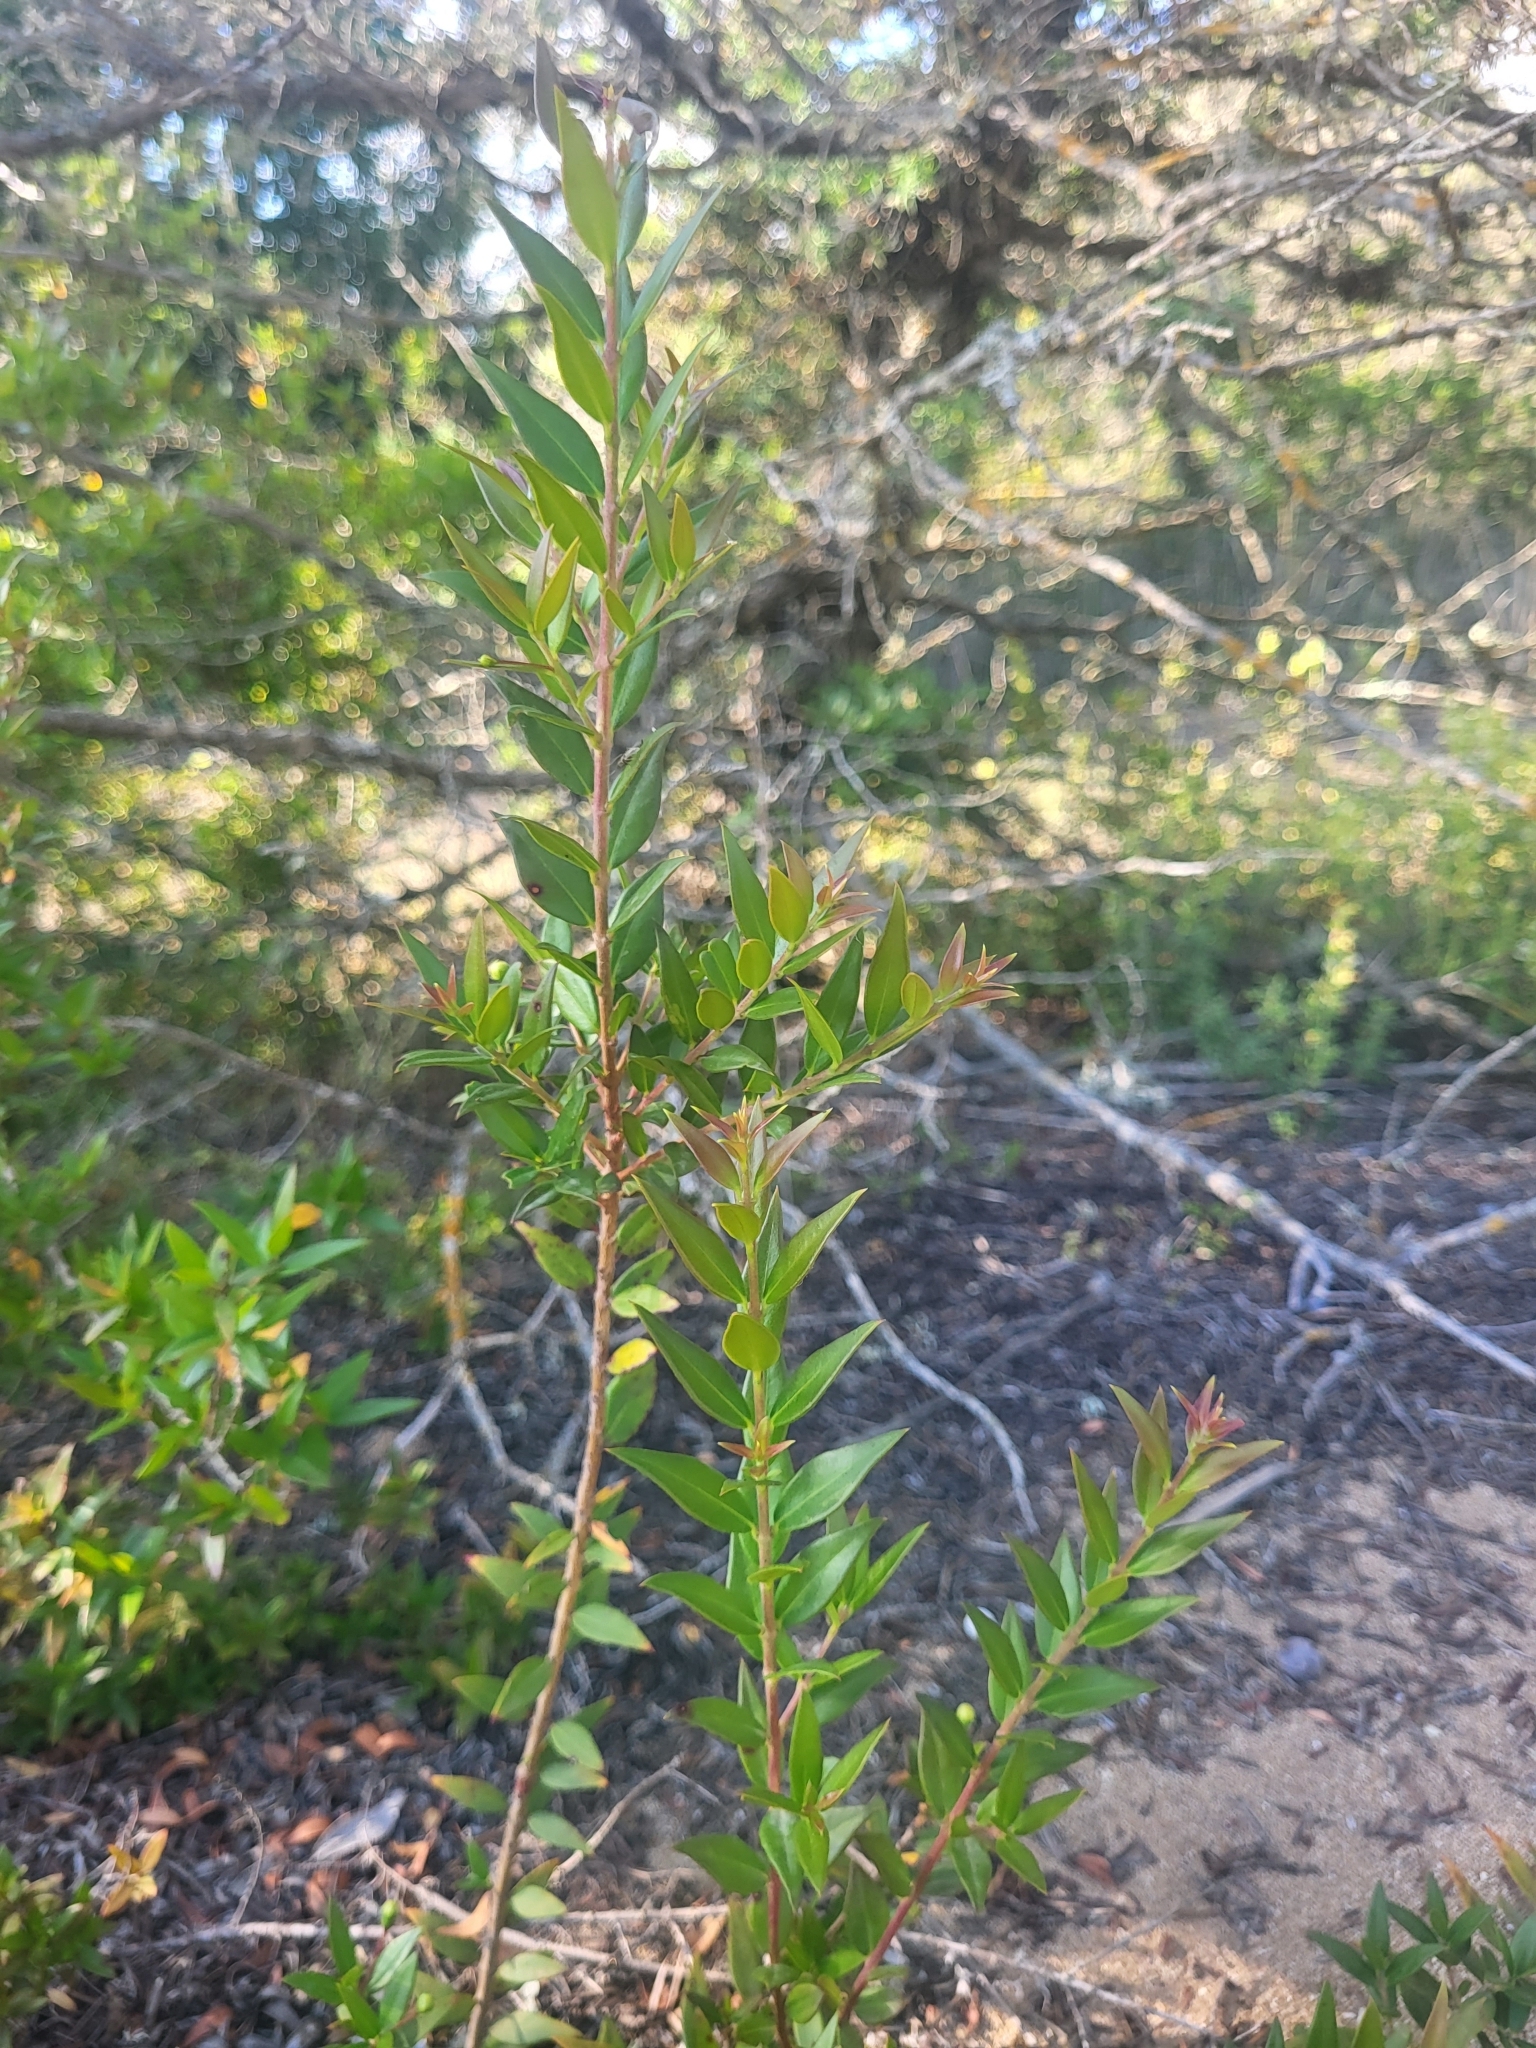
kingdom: Plantae
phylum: Tracheophyta
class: Magnoliopsida
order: Myrtales
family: Myrtaceae
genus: Myrtus
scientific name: Myrtus communis
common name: Myrtle
